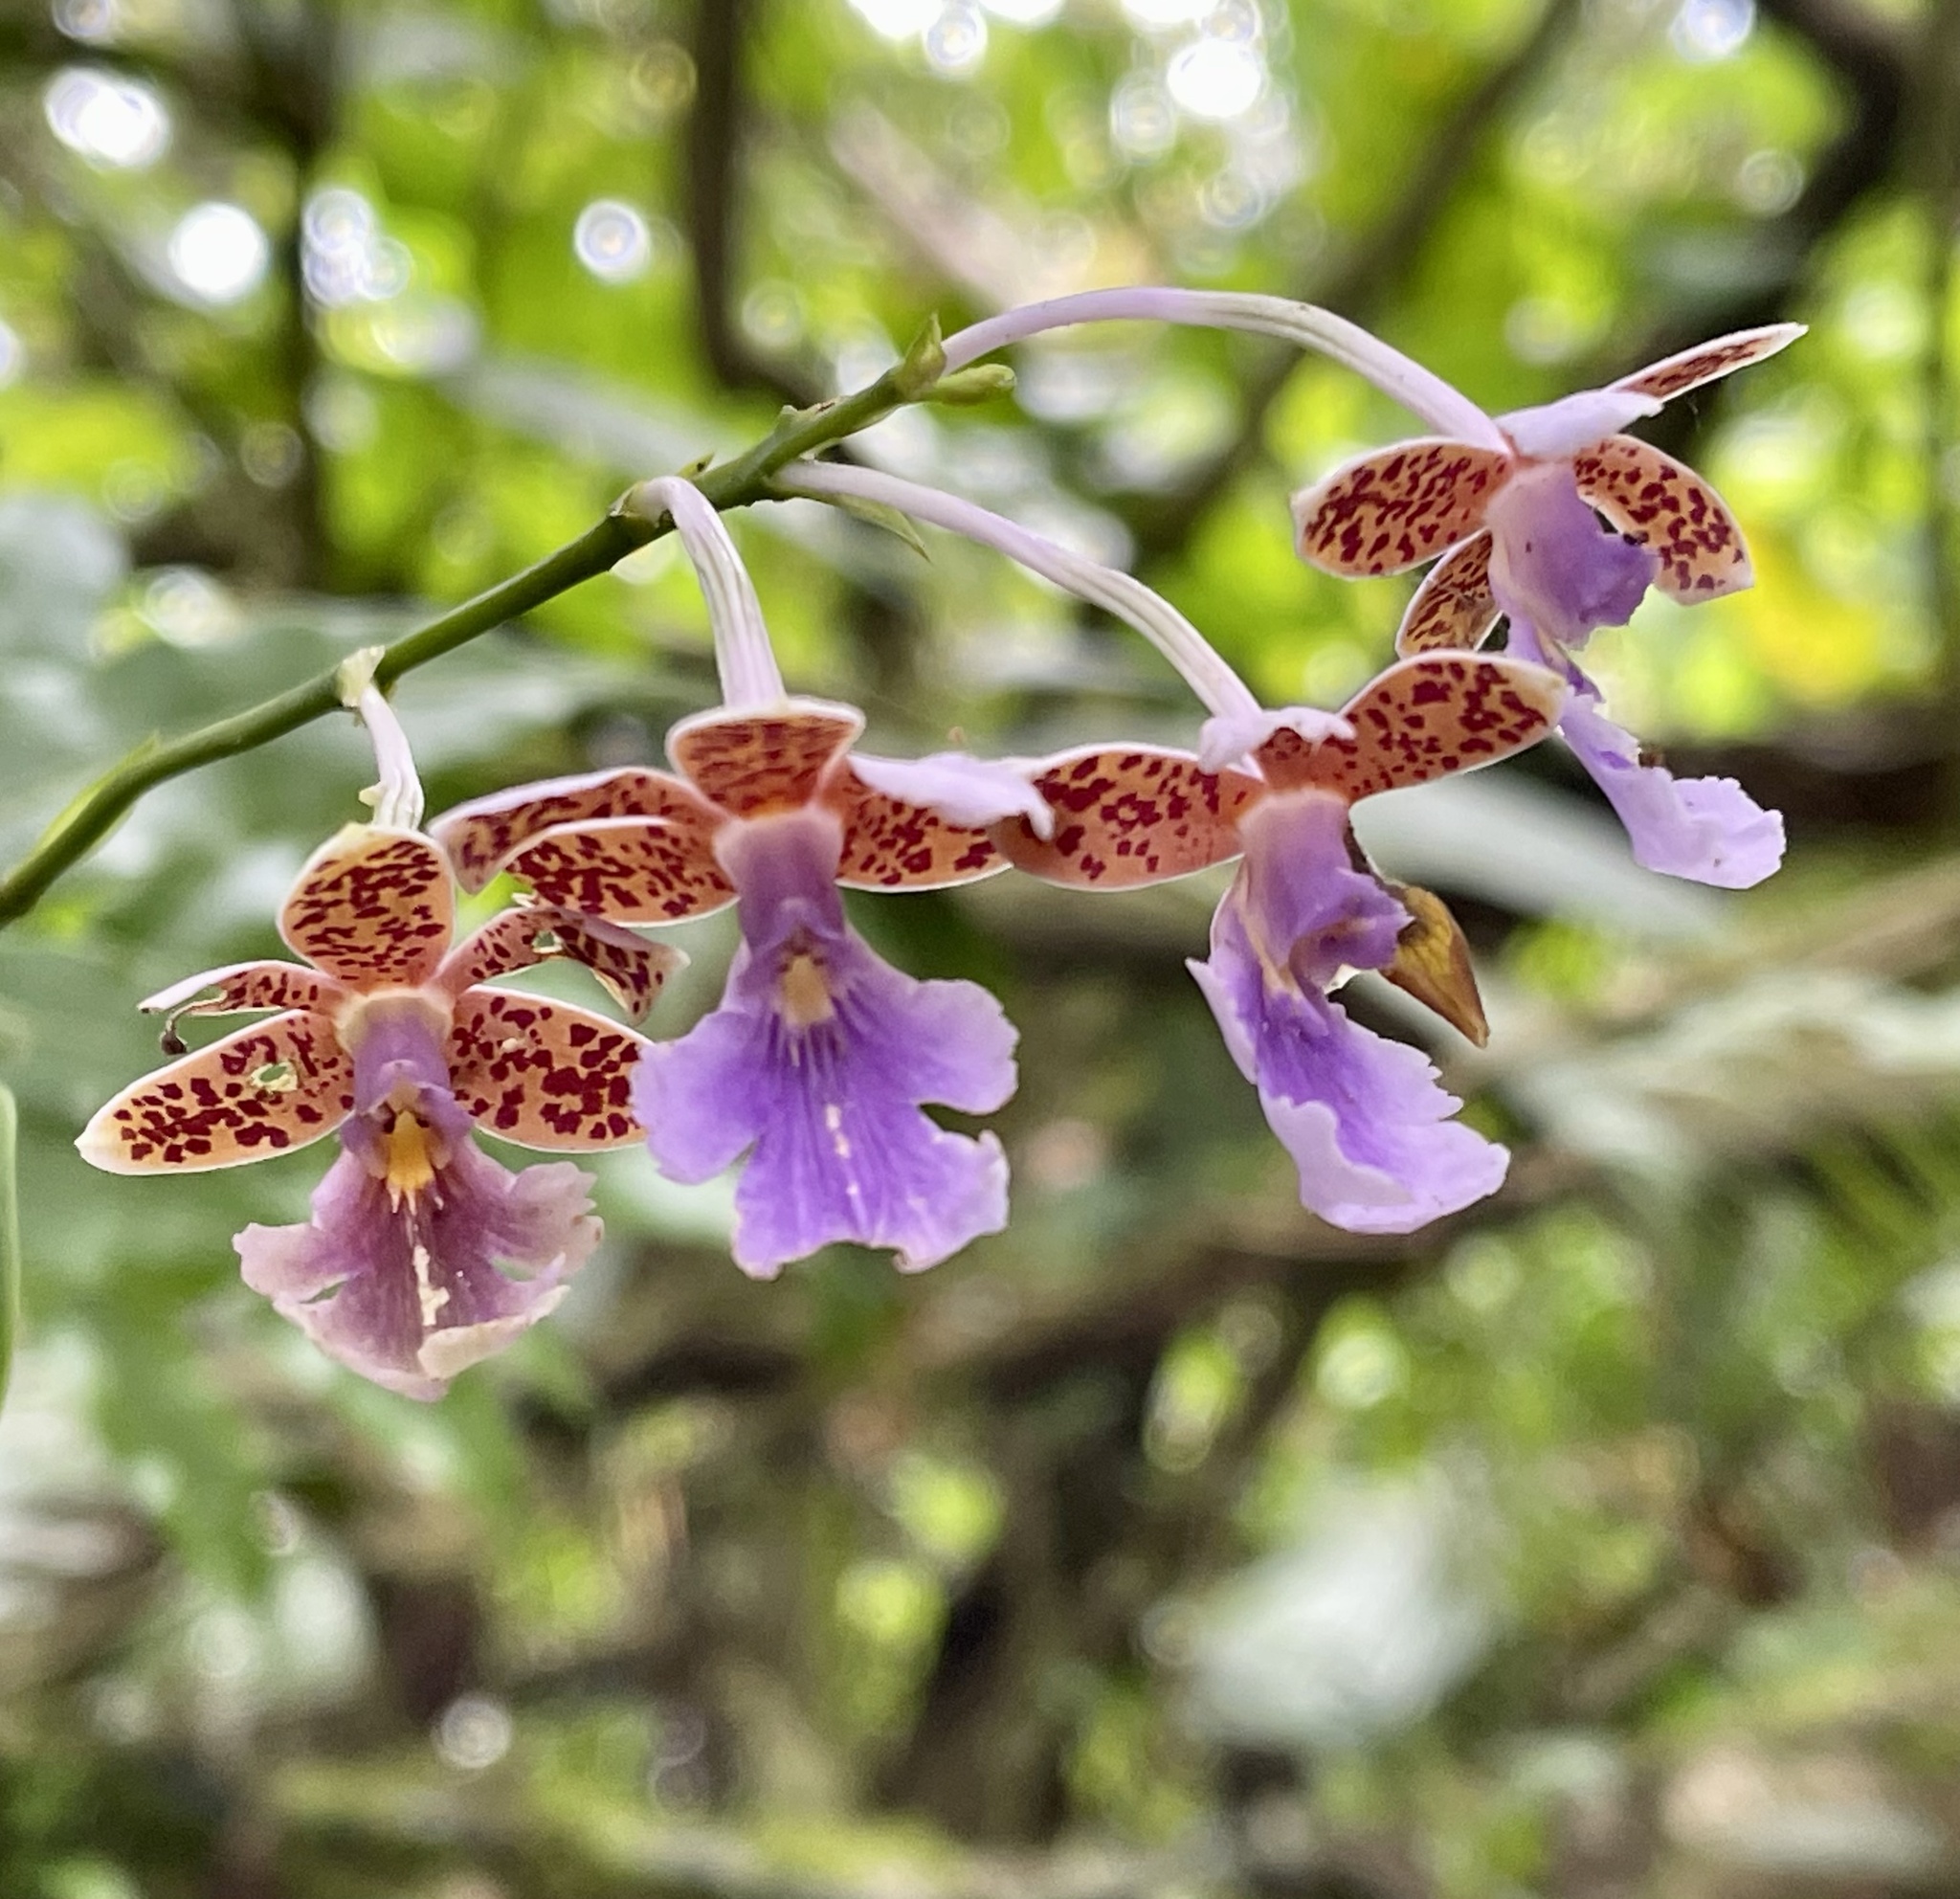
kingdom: Plantae
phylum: Tracheophyta
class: Liliopsida
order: Asparagales
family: Orchidaceae
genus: Epidendrum
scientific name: Epidendrum pseudoschumannianum
